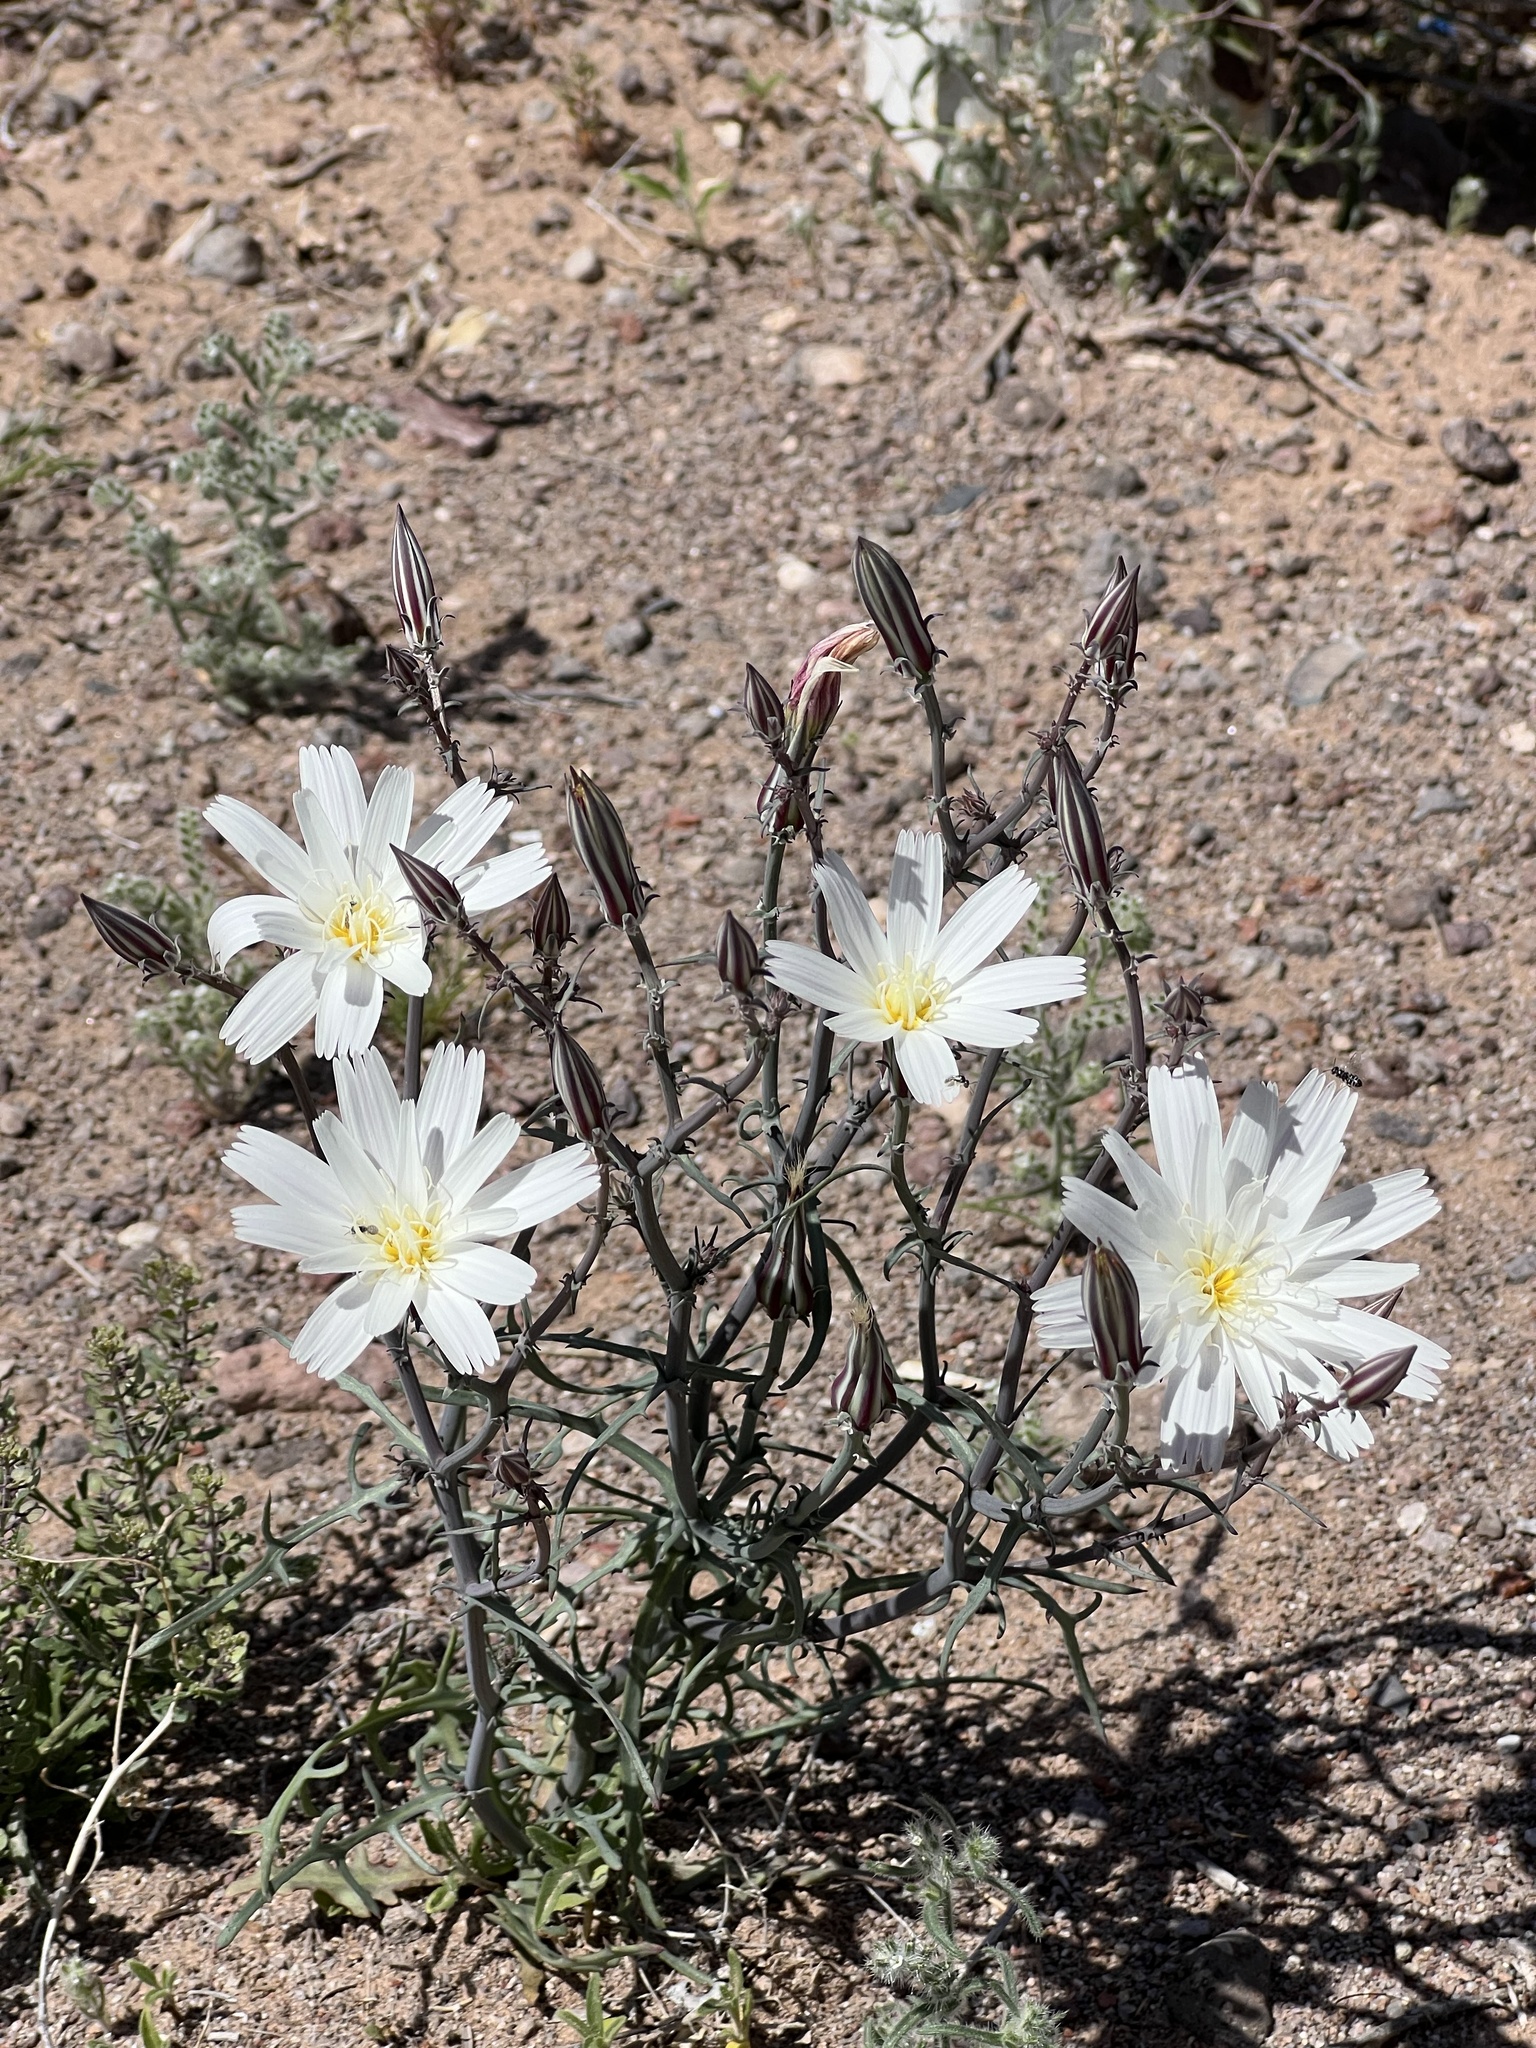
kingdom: Plantae
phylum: Tracheophyta
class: Magnoliopsida
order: Asterales
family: Asteraceae
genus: Rafinesquia
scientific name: Rafinesquia neomexicana
